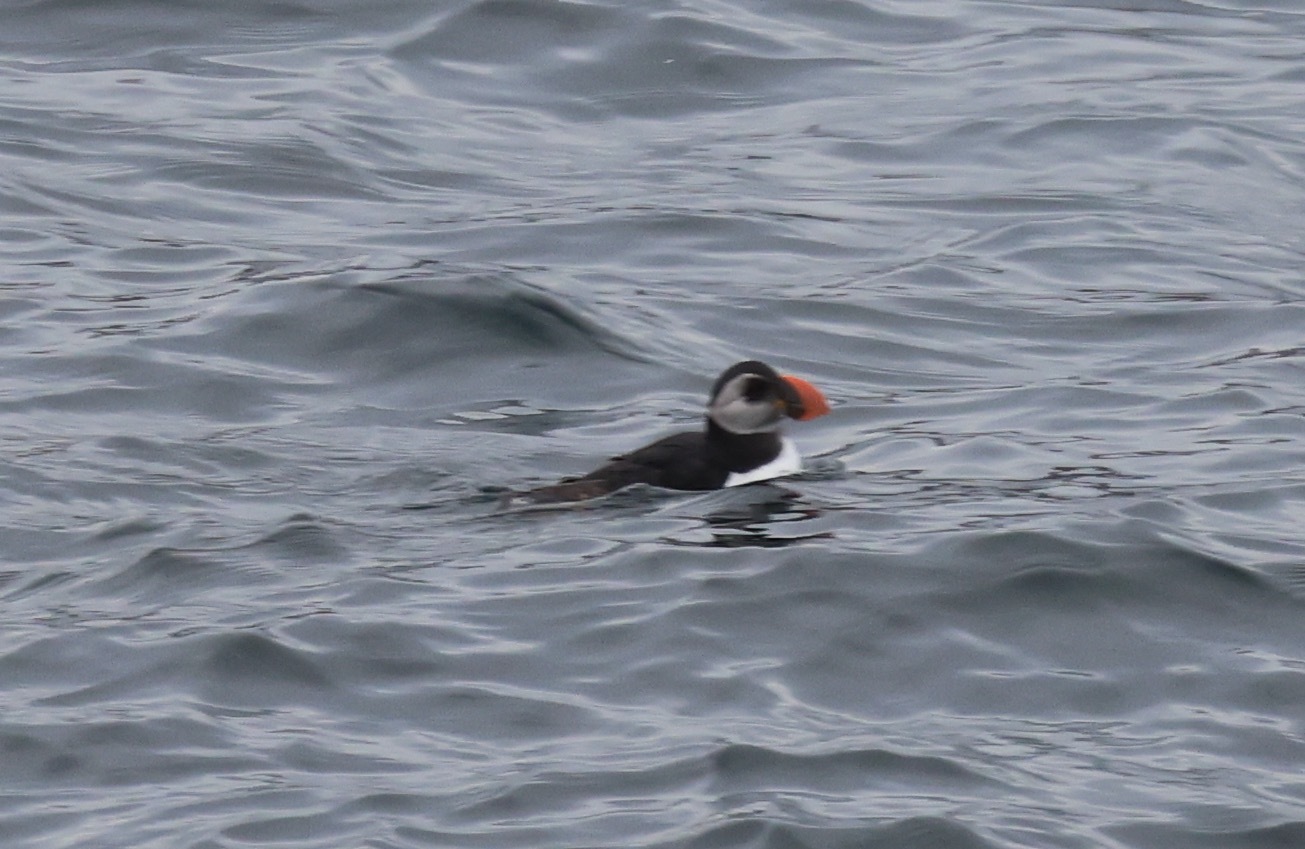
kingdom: Animalia
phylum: Chordata
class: Aves
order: Charadriiformes
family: Alcidae
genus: Fratercula
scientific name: Fratercula arctica
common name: Atlantic puffin
